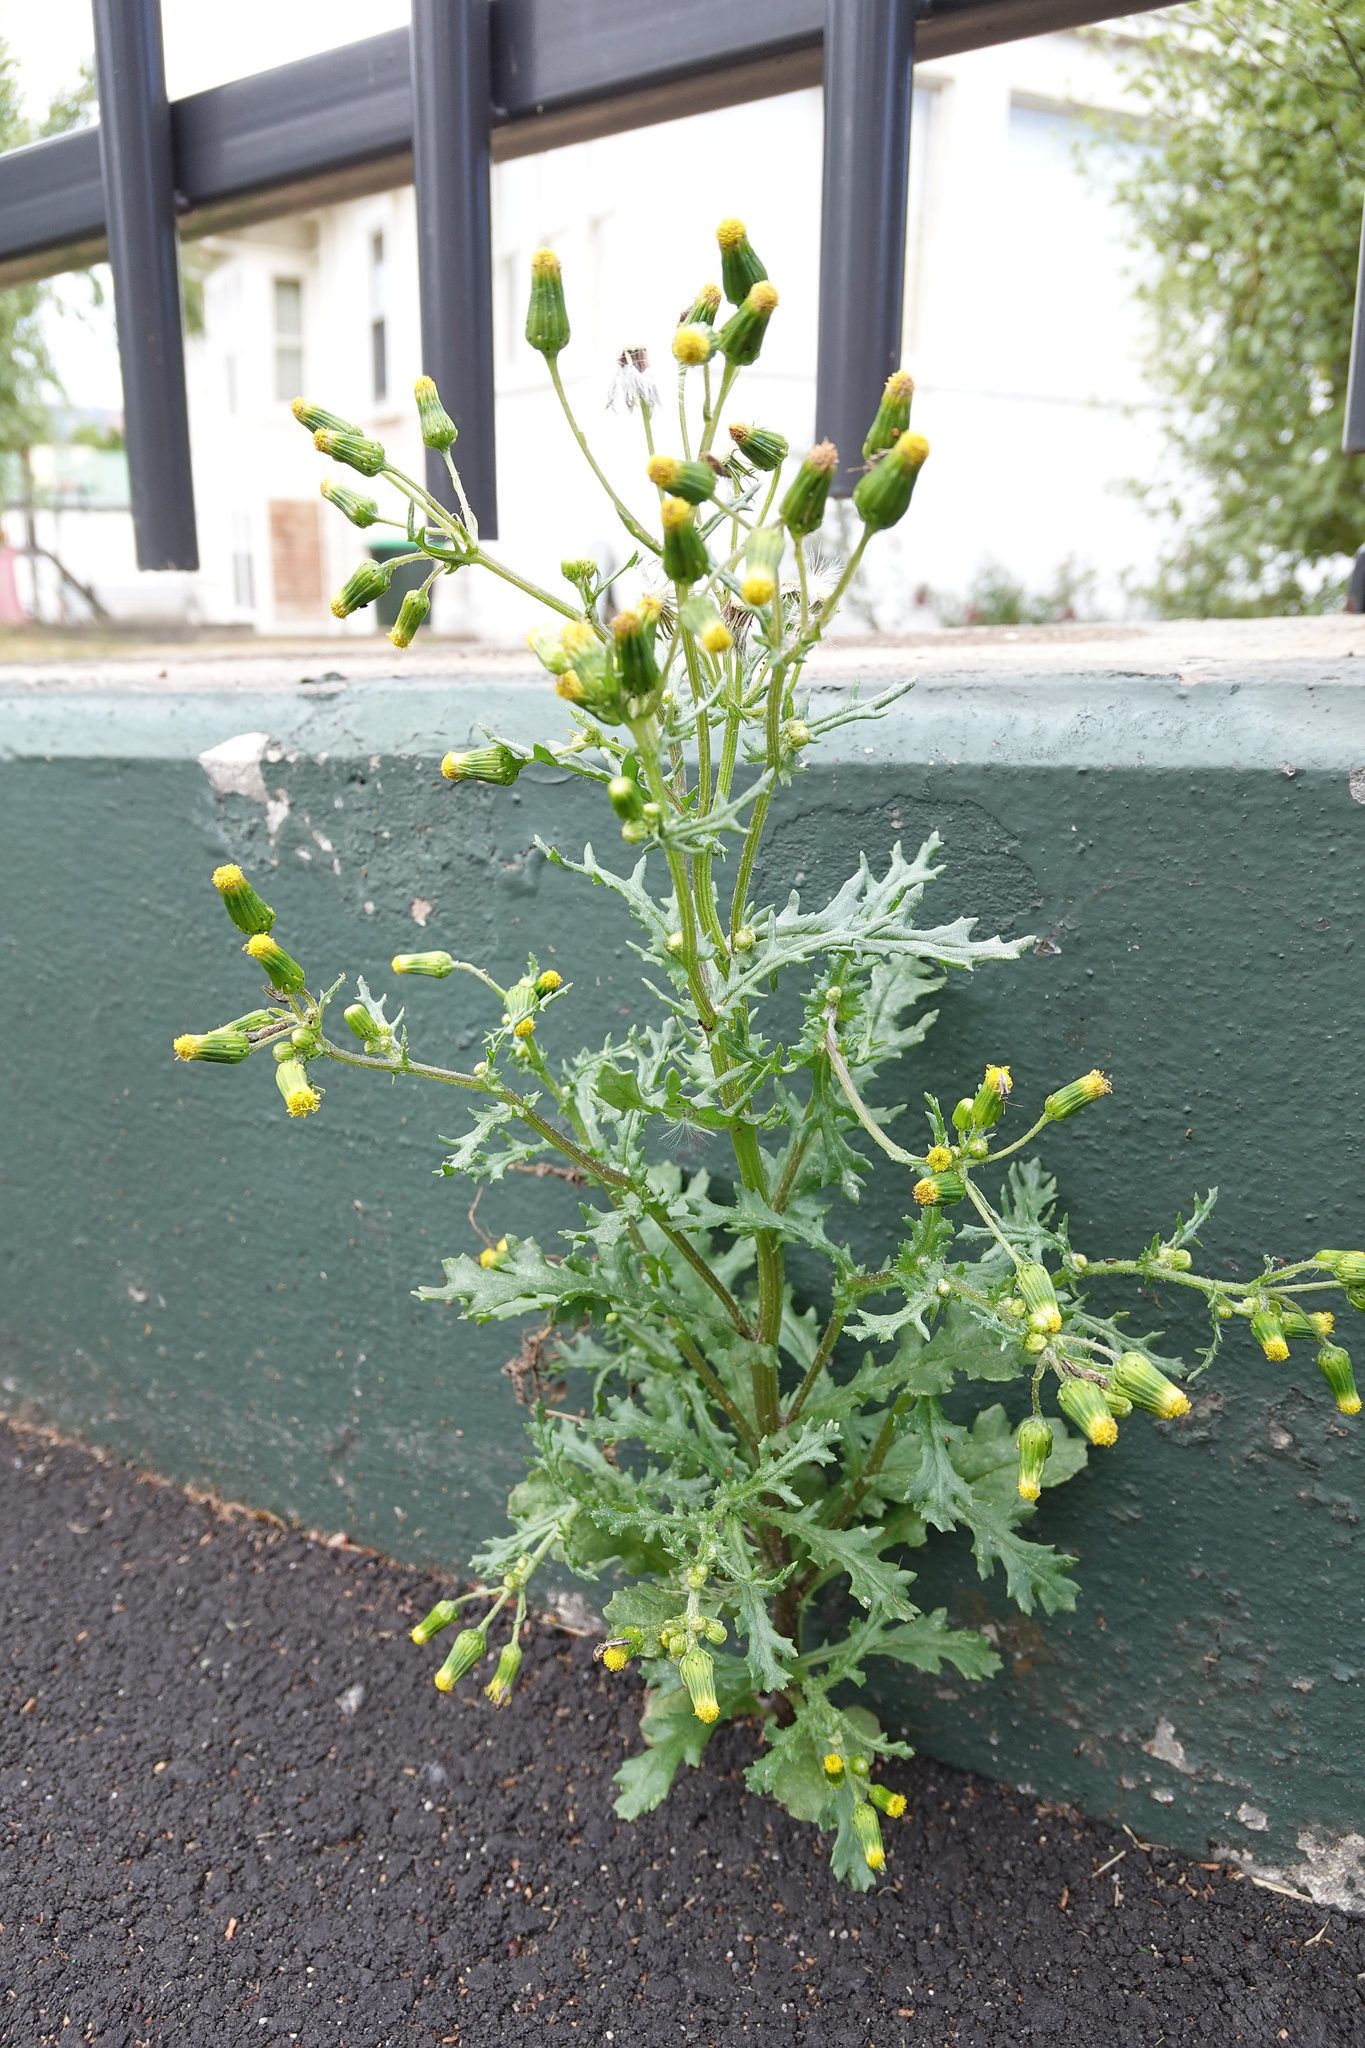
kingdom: Plantae
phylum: Tracheophyta
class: Magnoliopsida
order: Asterales
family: Asteraceae
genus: Senecio
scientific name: Senecio vulgaris
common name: Old-man-in-the-spring
